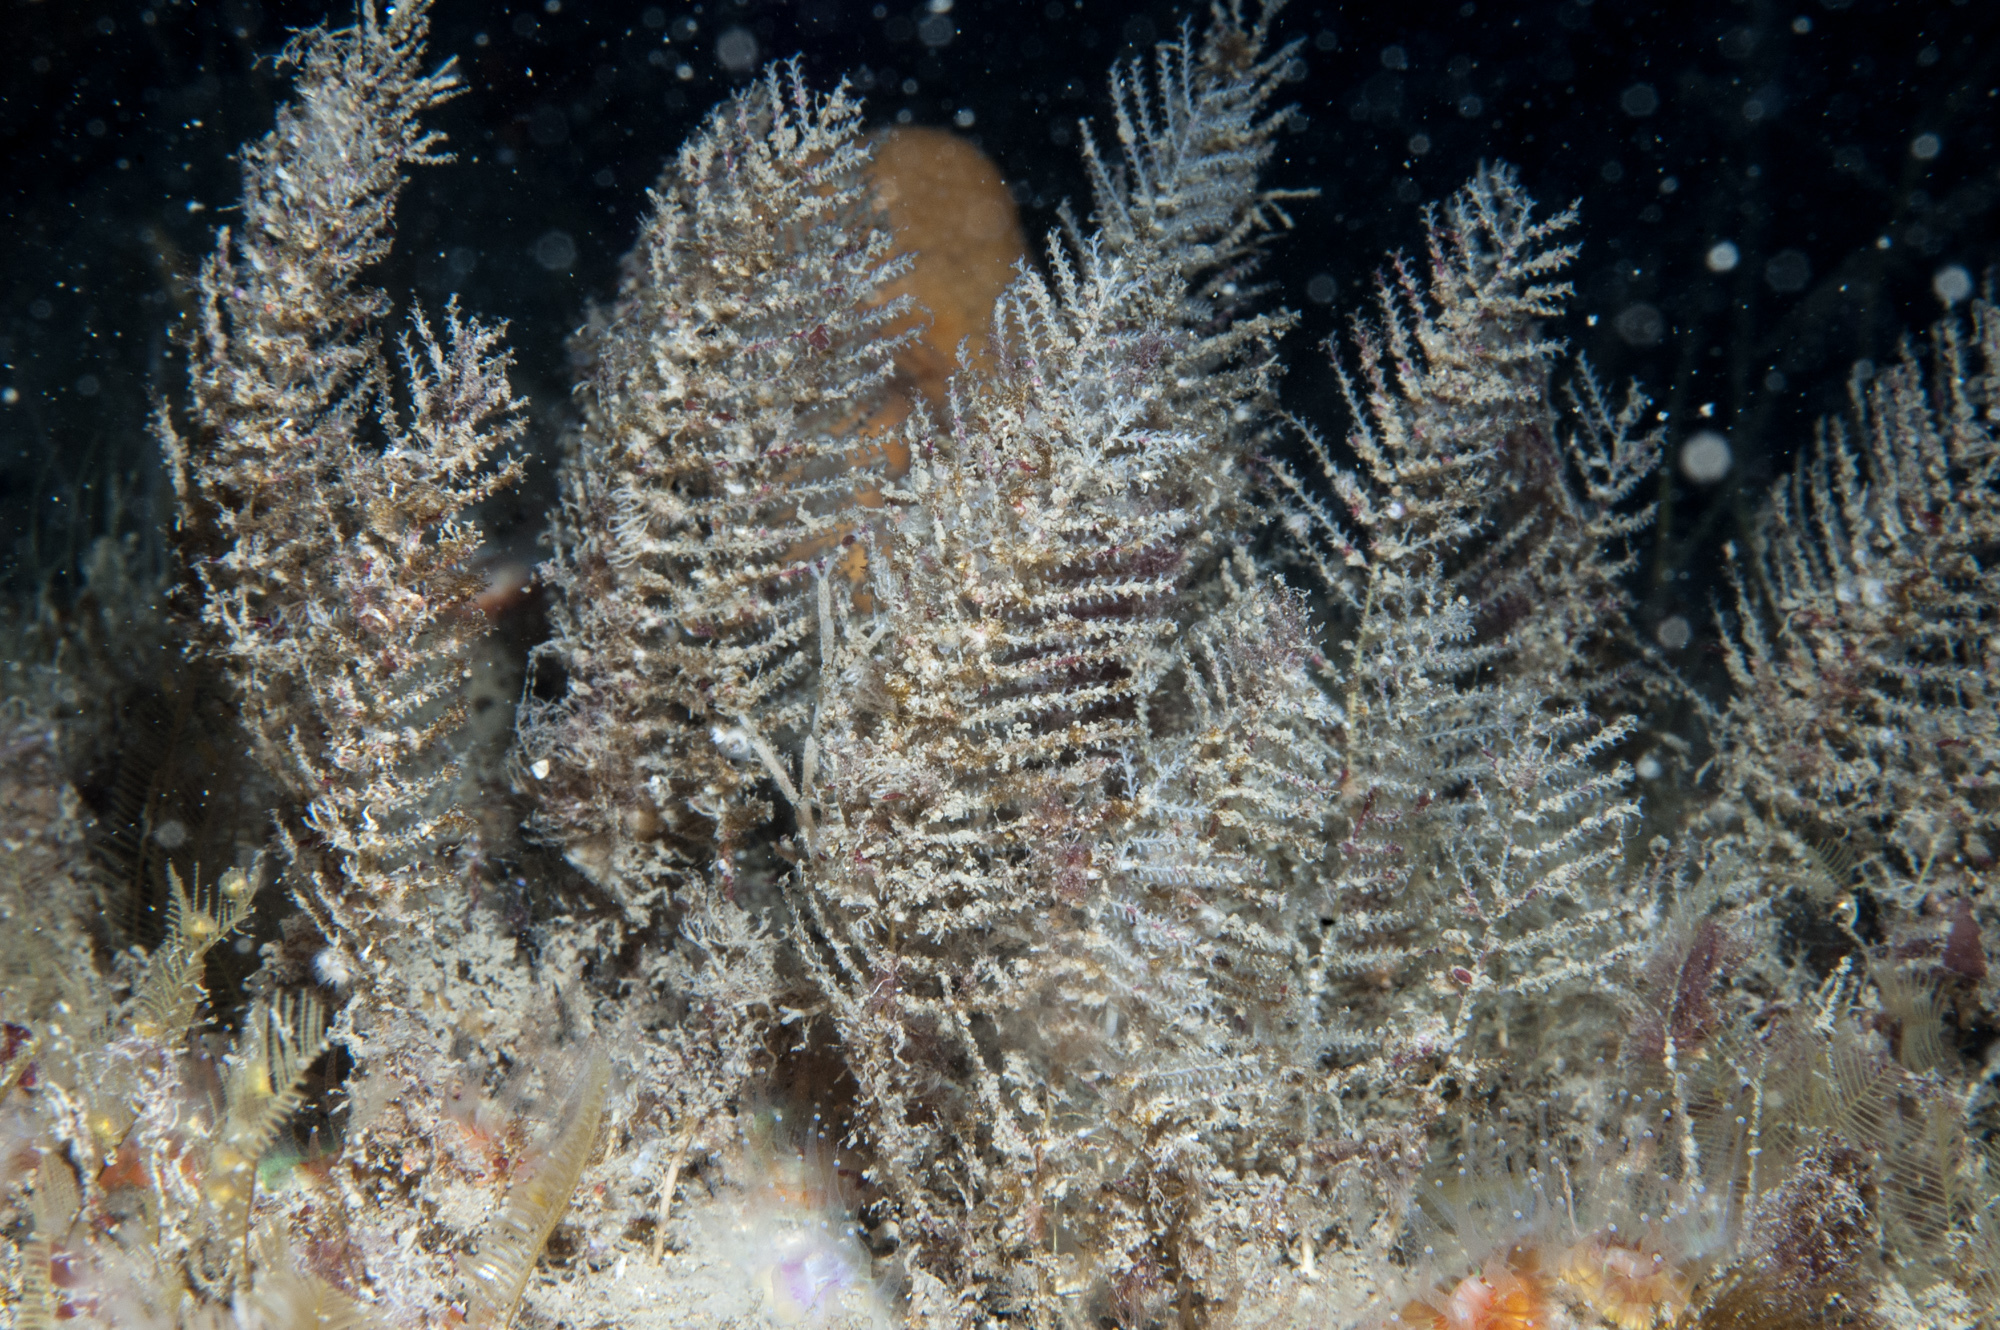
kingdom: Animalia
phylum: Cnidaria
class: Hydrozoa
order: Leptothecata
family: Sertulariidae
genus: Diphasia
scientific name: Diphasia margareta
